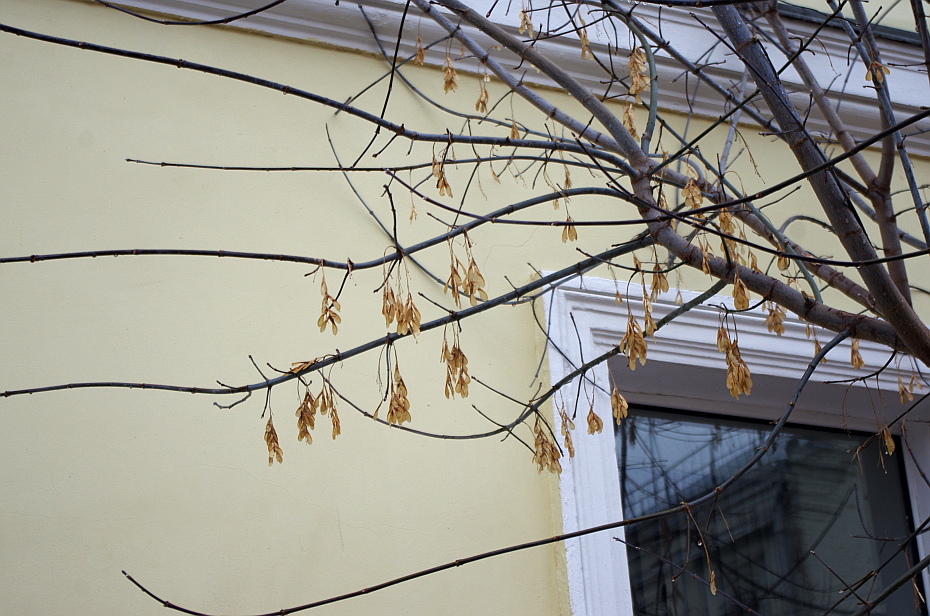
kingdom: Plantae
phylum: Tracheophyta
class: Magnoliopsida
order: Sapindales
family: Sapindaceae
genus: Acer
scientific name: Acer negundo
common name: Ashleaf maple
